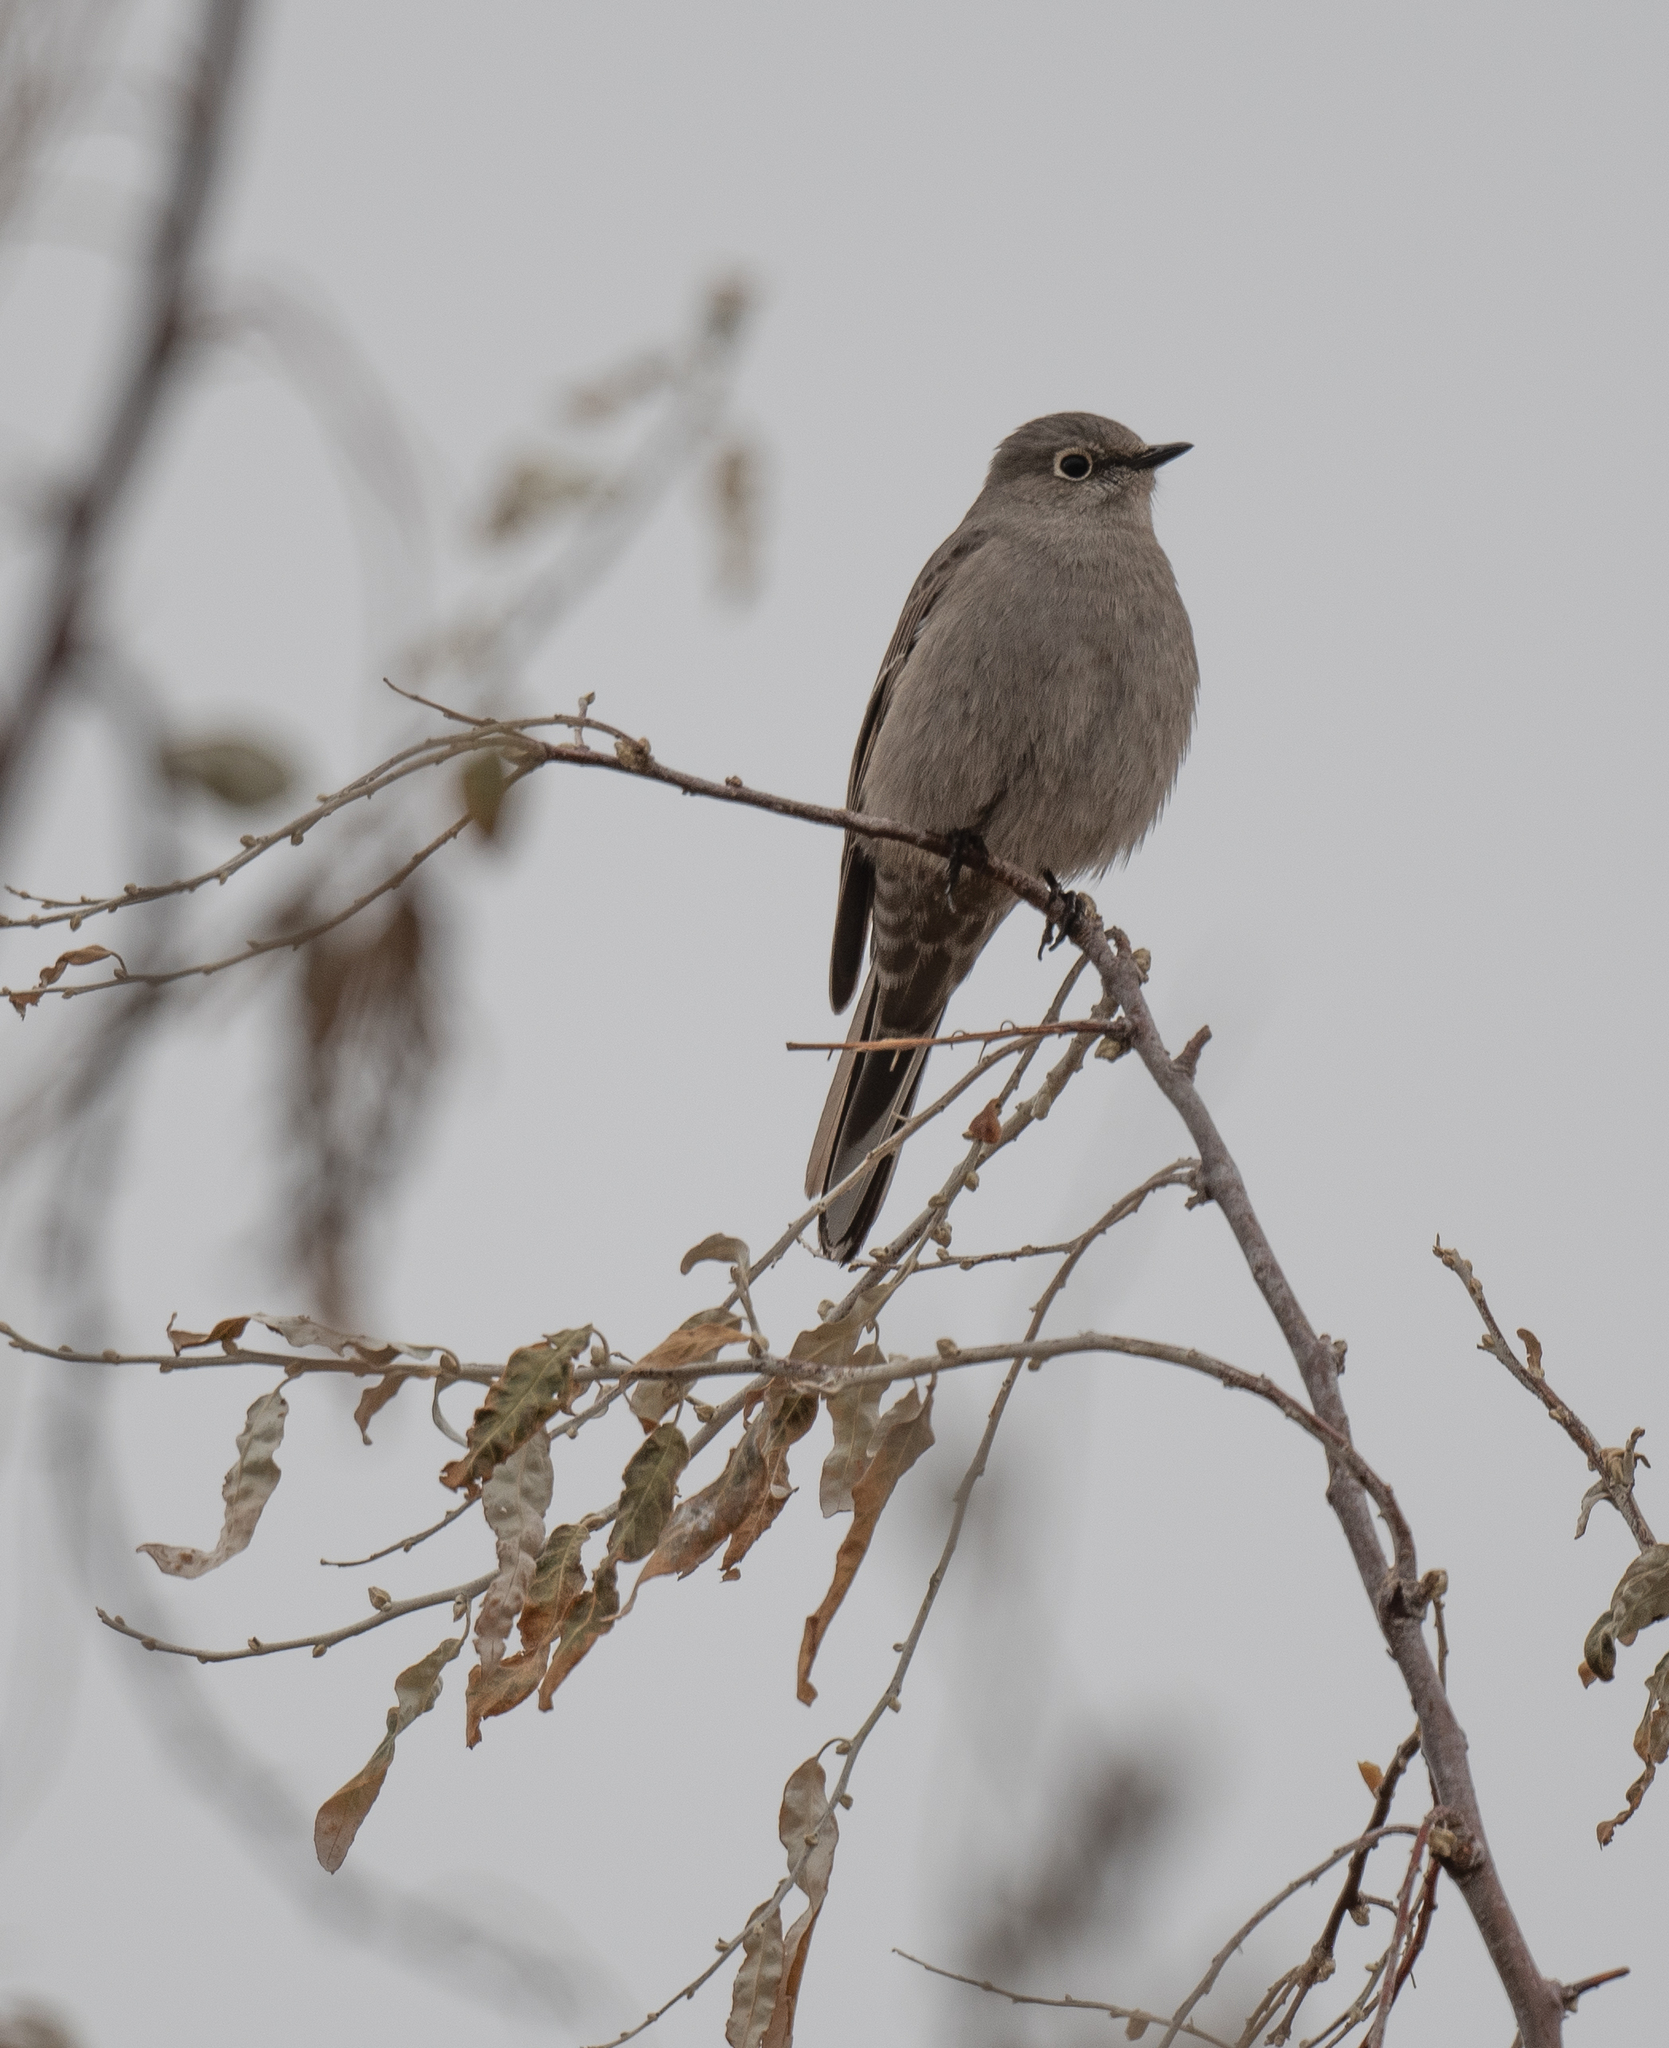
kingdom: Animalia
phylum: Chordata
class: Aves
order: Passeriformes
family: Turdidae
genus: Myadestes
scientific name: Myadestes townsendi
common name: Townsend's solitaire
